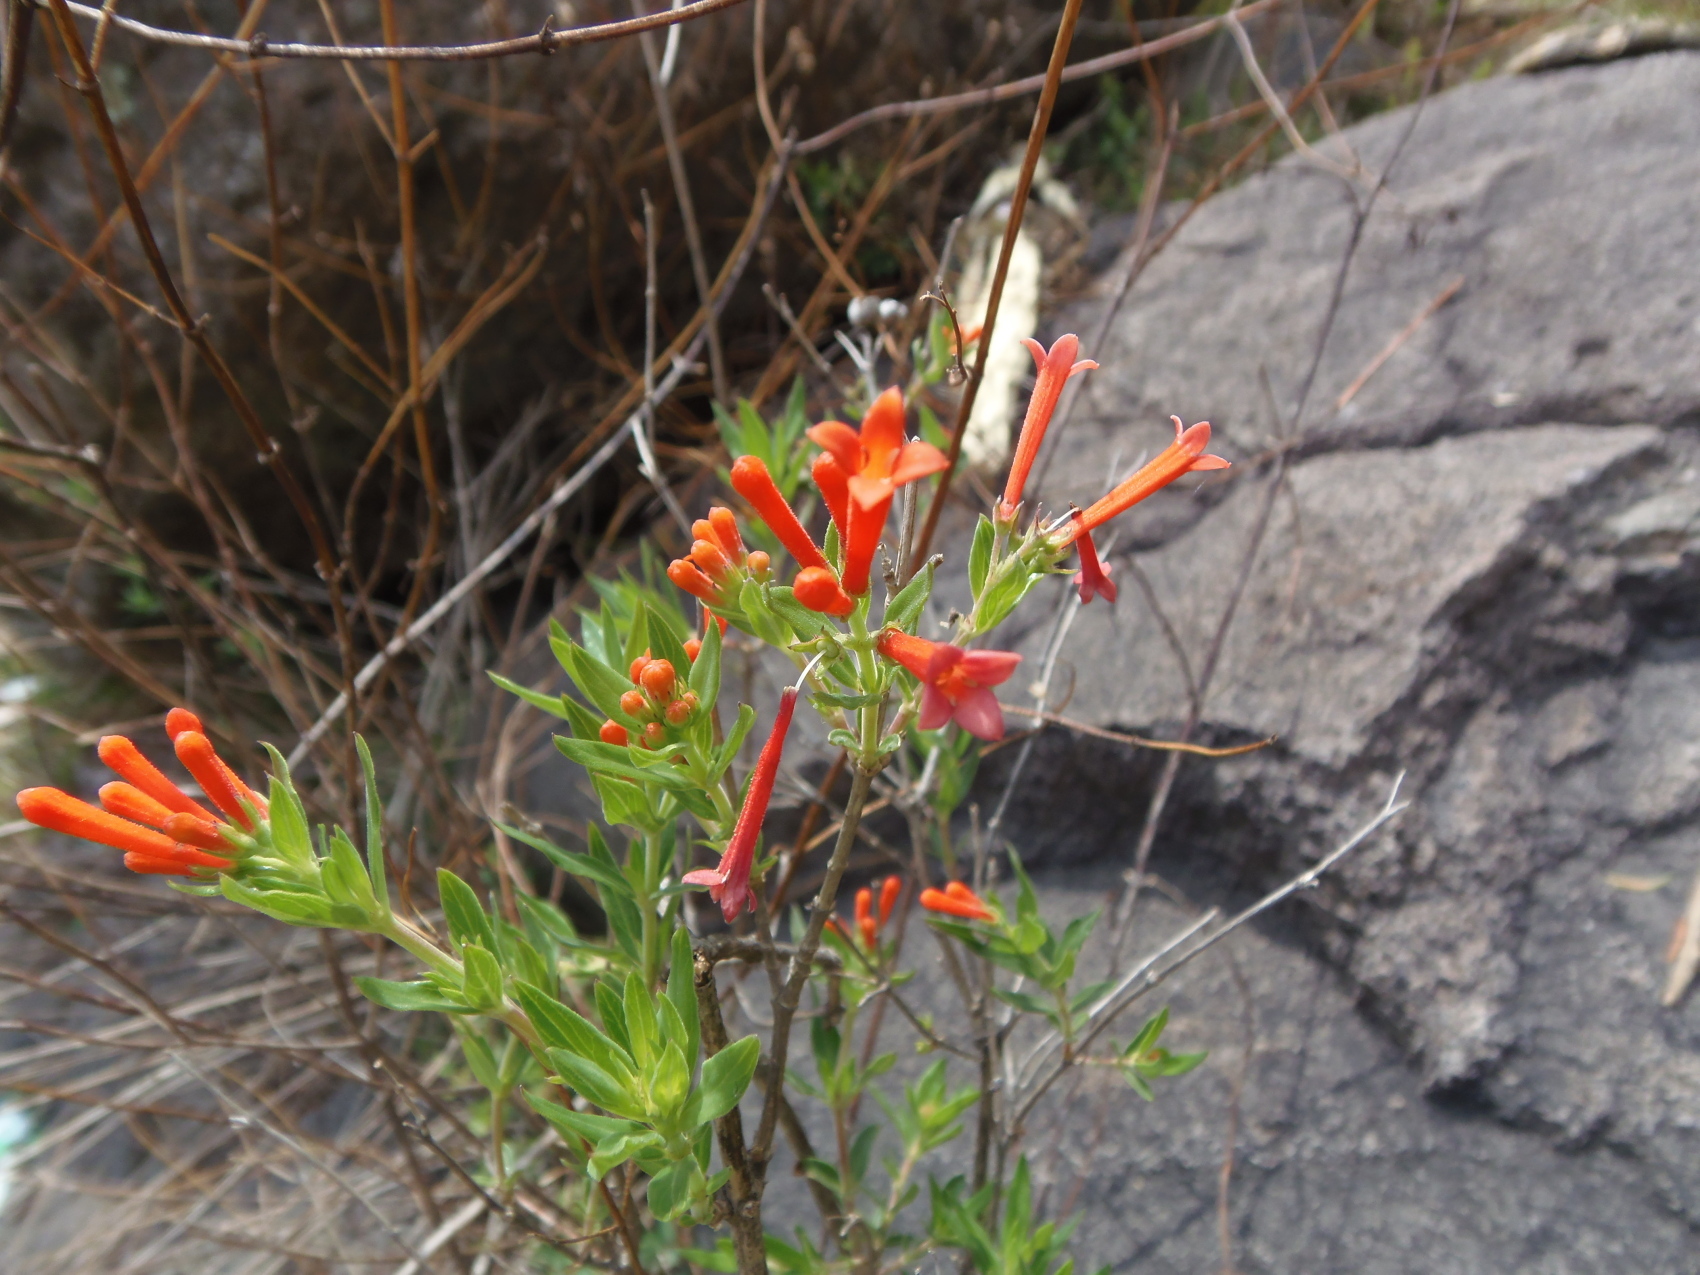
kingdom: Plantae
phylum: Tracheophyta
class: Magnoliopsida
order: Gentianales
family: Rubiaceae
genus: Bouvardia
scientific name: Bouvardia ternifolia
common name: Scarlet bouvardia
